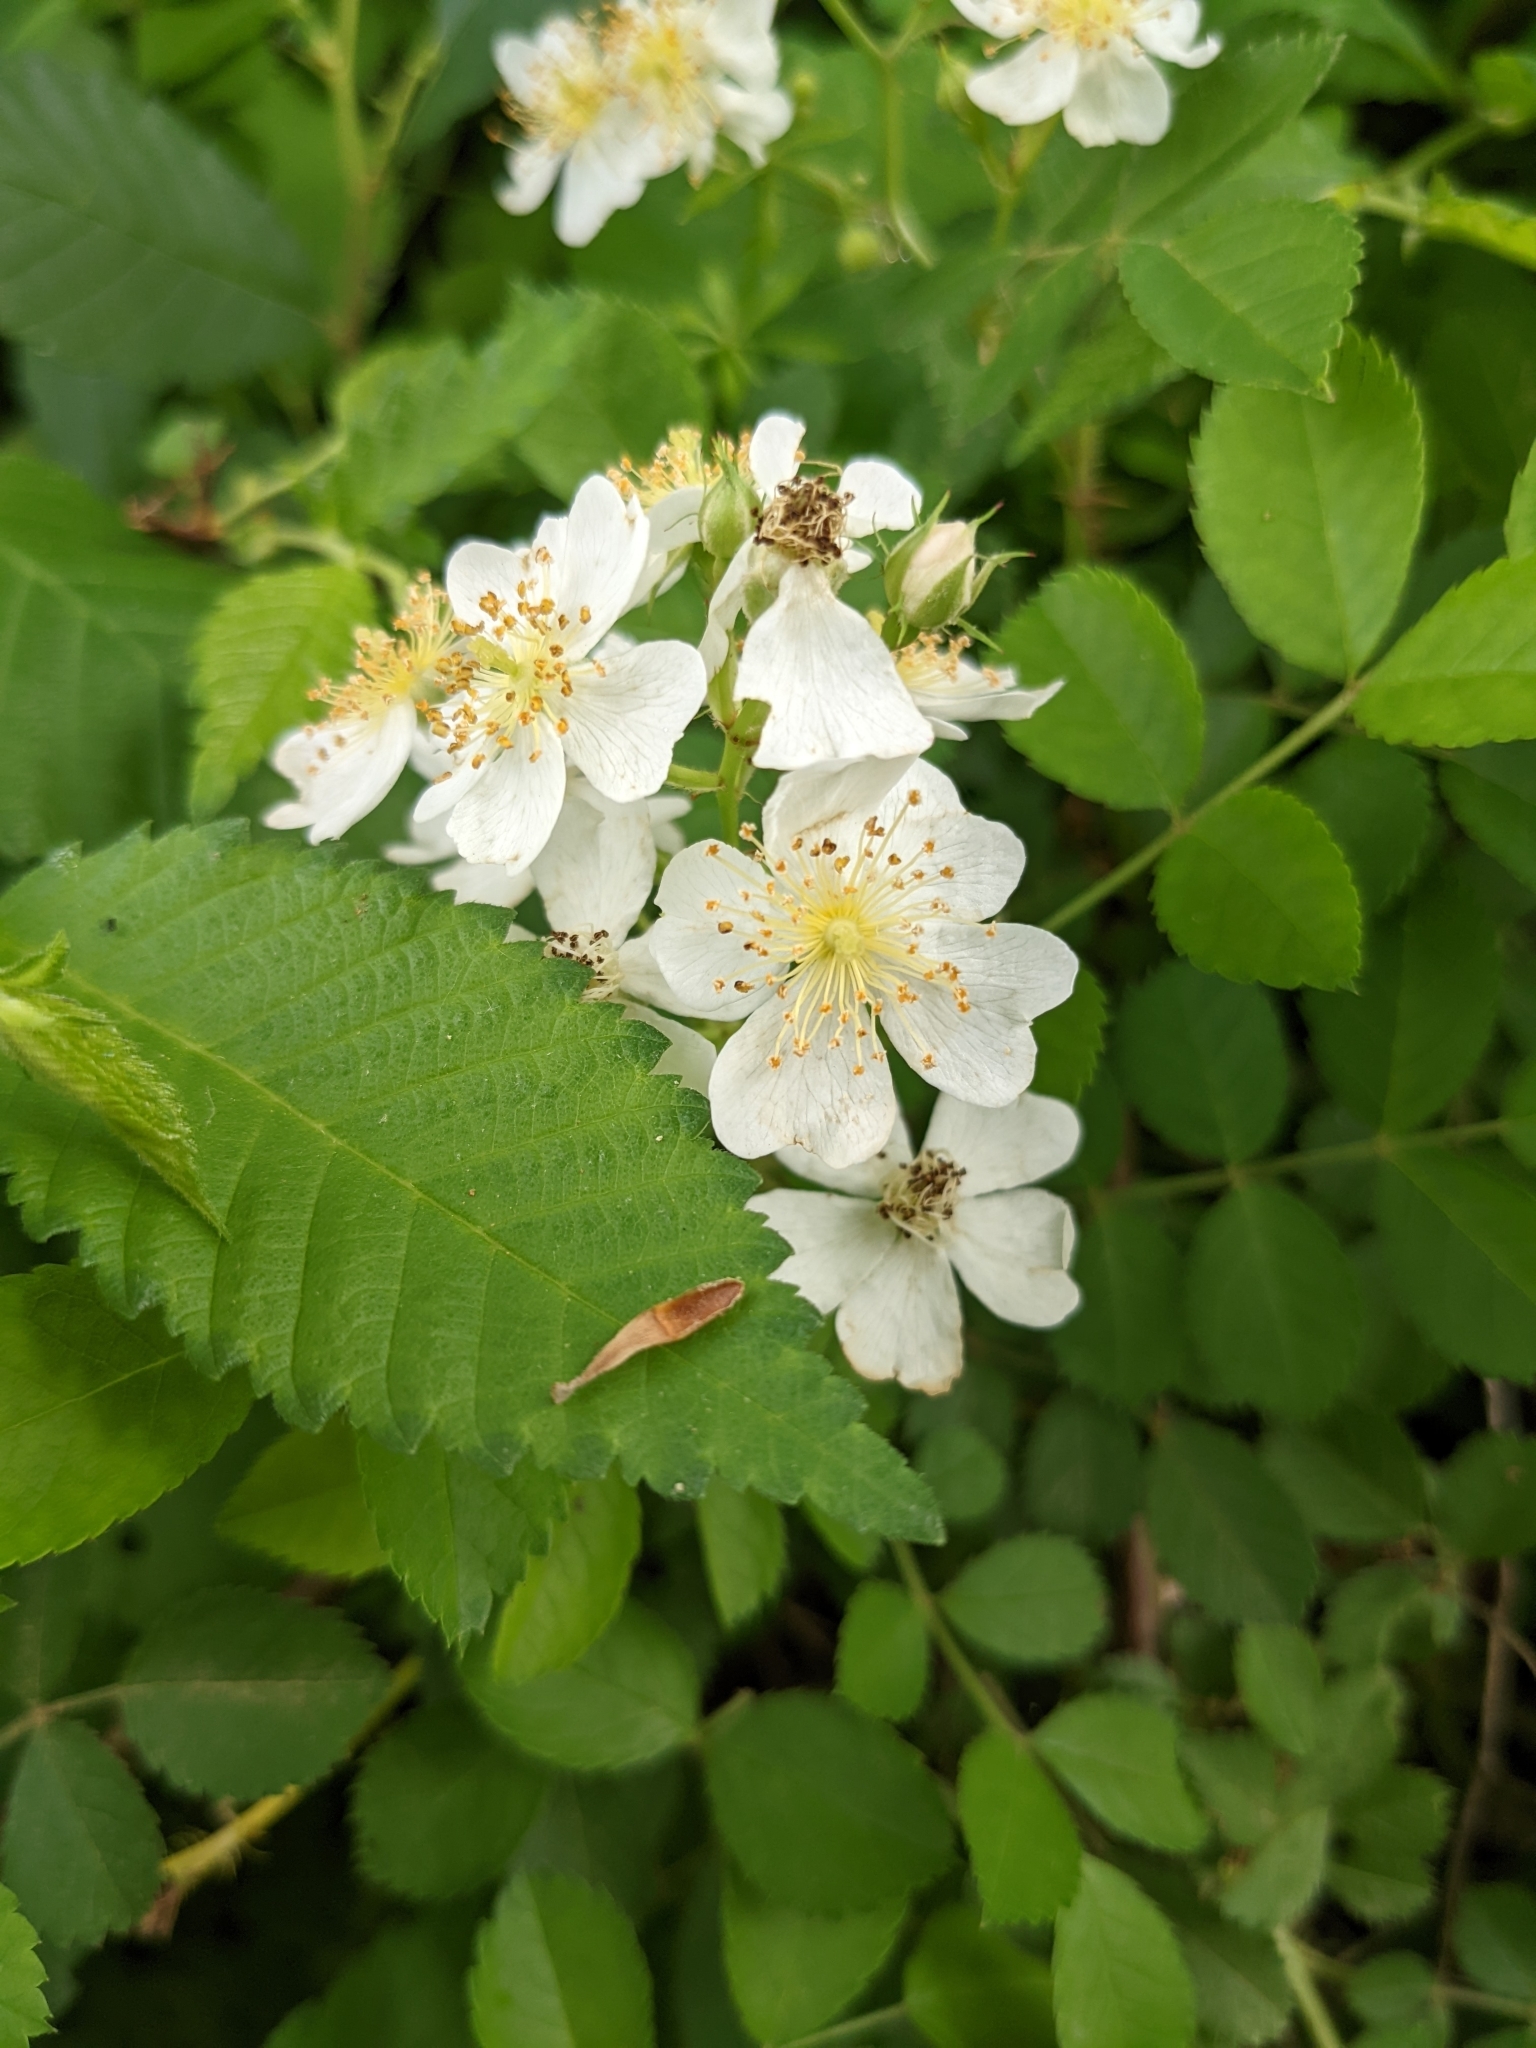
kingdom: Plantae
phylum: Tracheophyta
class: Magnoliopsida
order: Rosales
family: Rosaceae
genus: Rosa
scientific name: Rosa multiflora
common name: Multiflora rose
